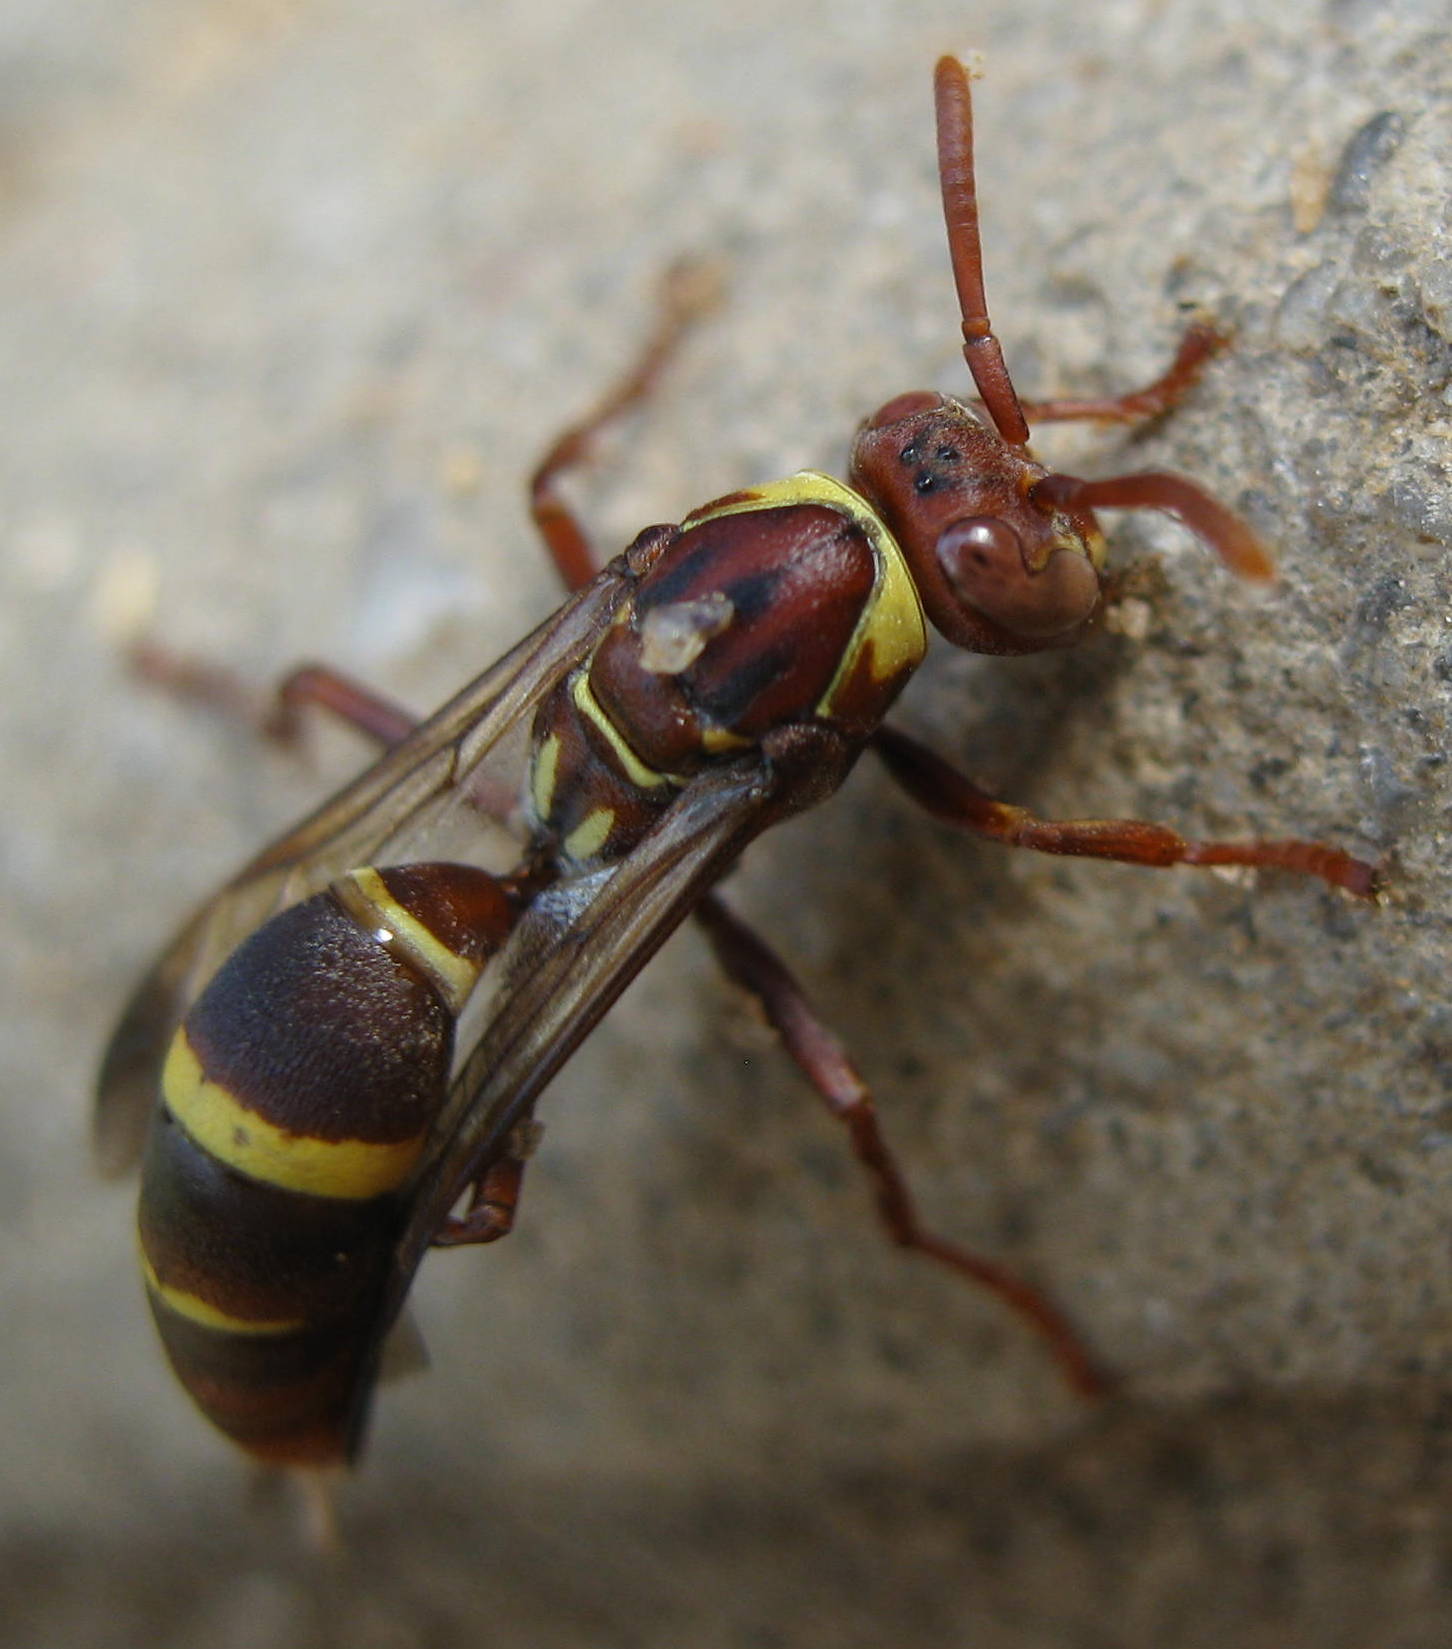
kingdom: Animalia
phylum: Arthropoda
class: Insecta
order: Hymenoptera
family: Eumenidae
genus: Polistes
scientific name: Polistes badius
